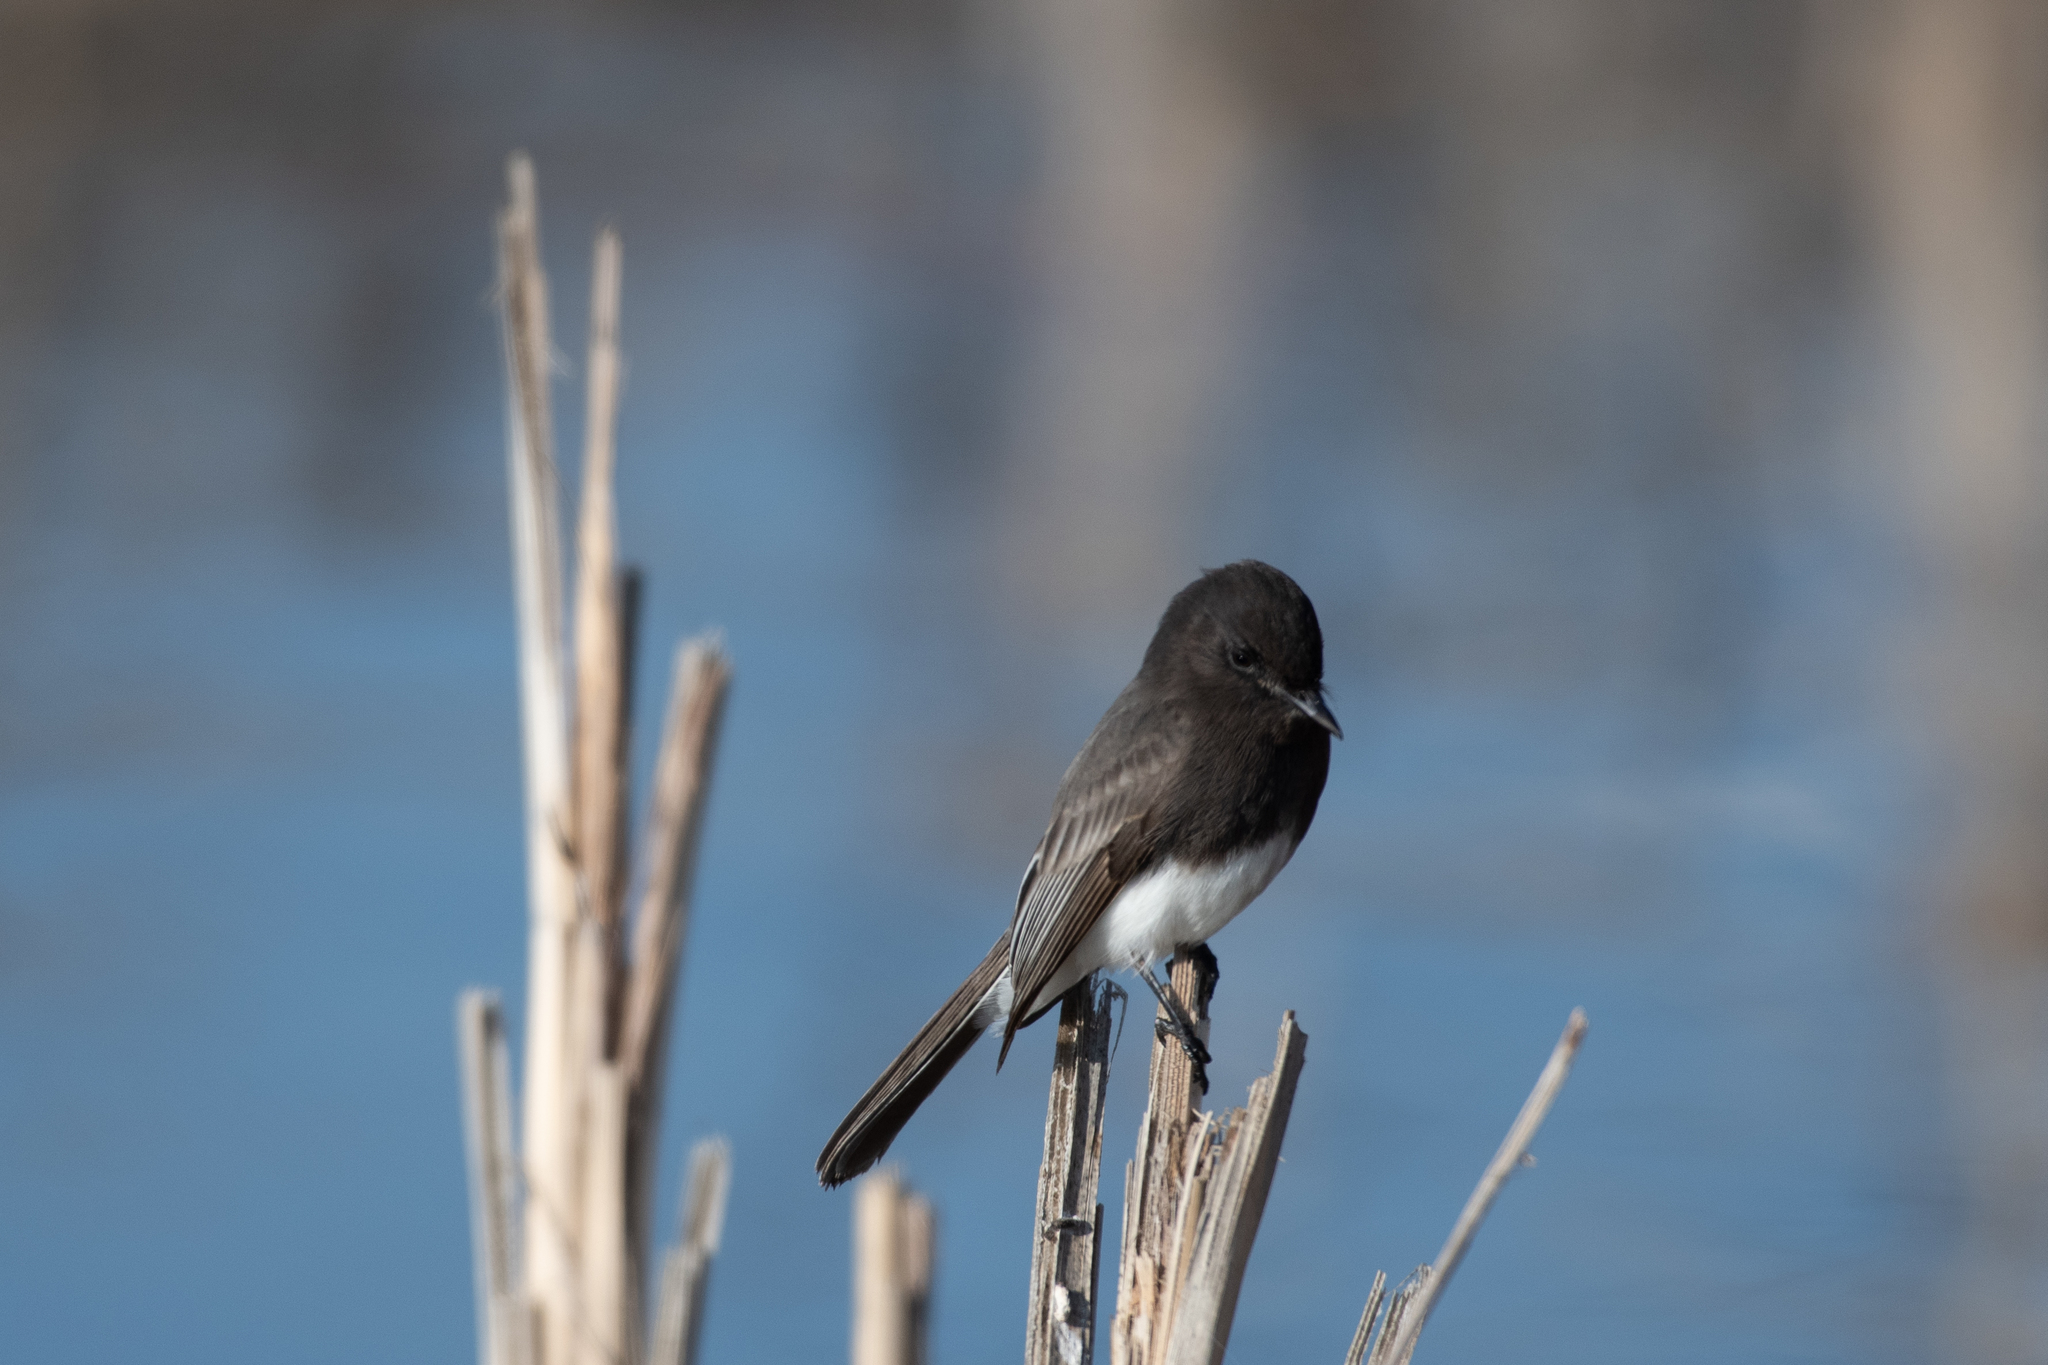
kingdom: Animalia
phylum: Chordata
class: Aves
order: Passeriformes
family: Tyrannidae
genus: Sayornis
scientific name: Sayornis nigricans
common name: Black phoebe
